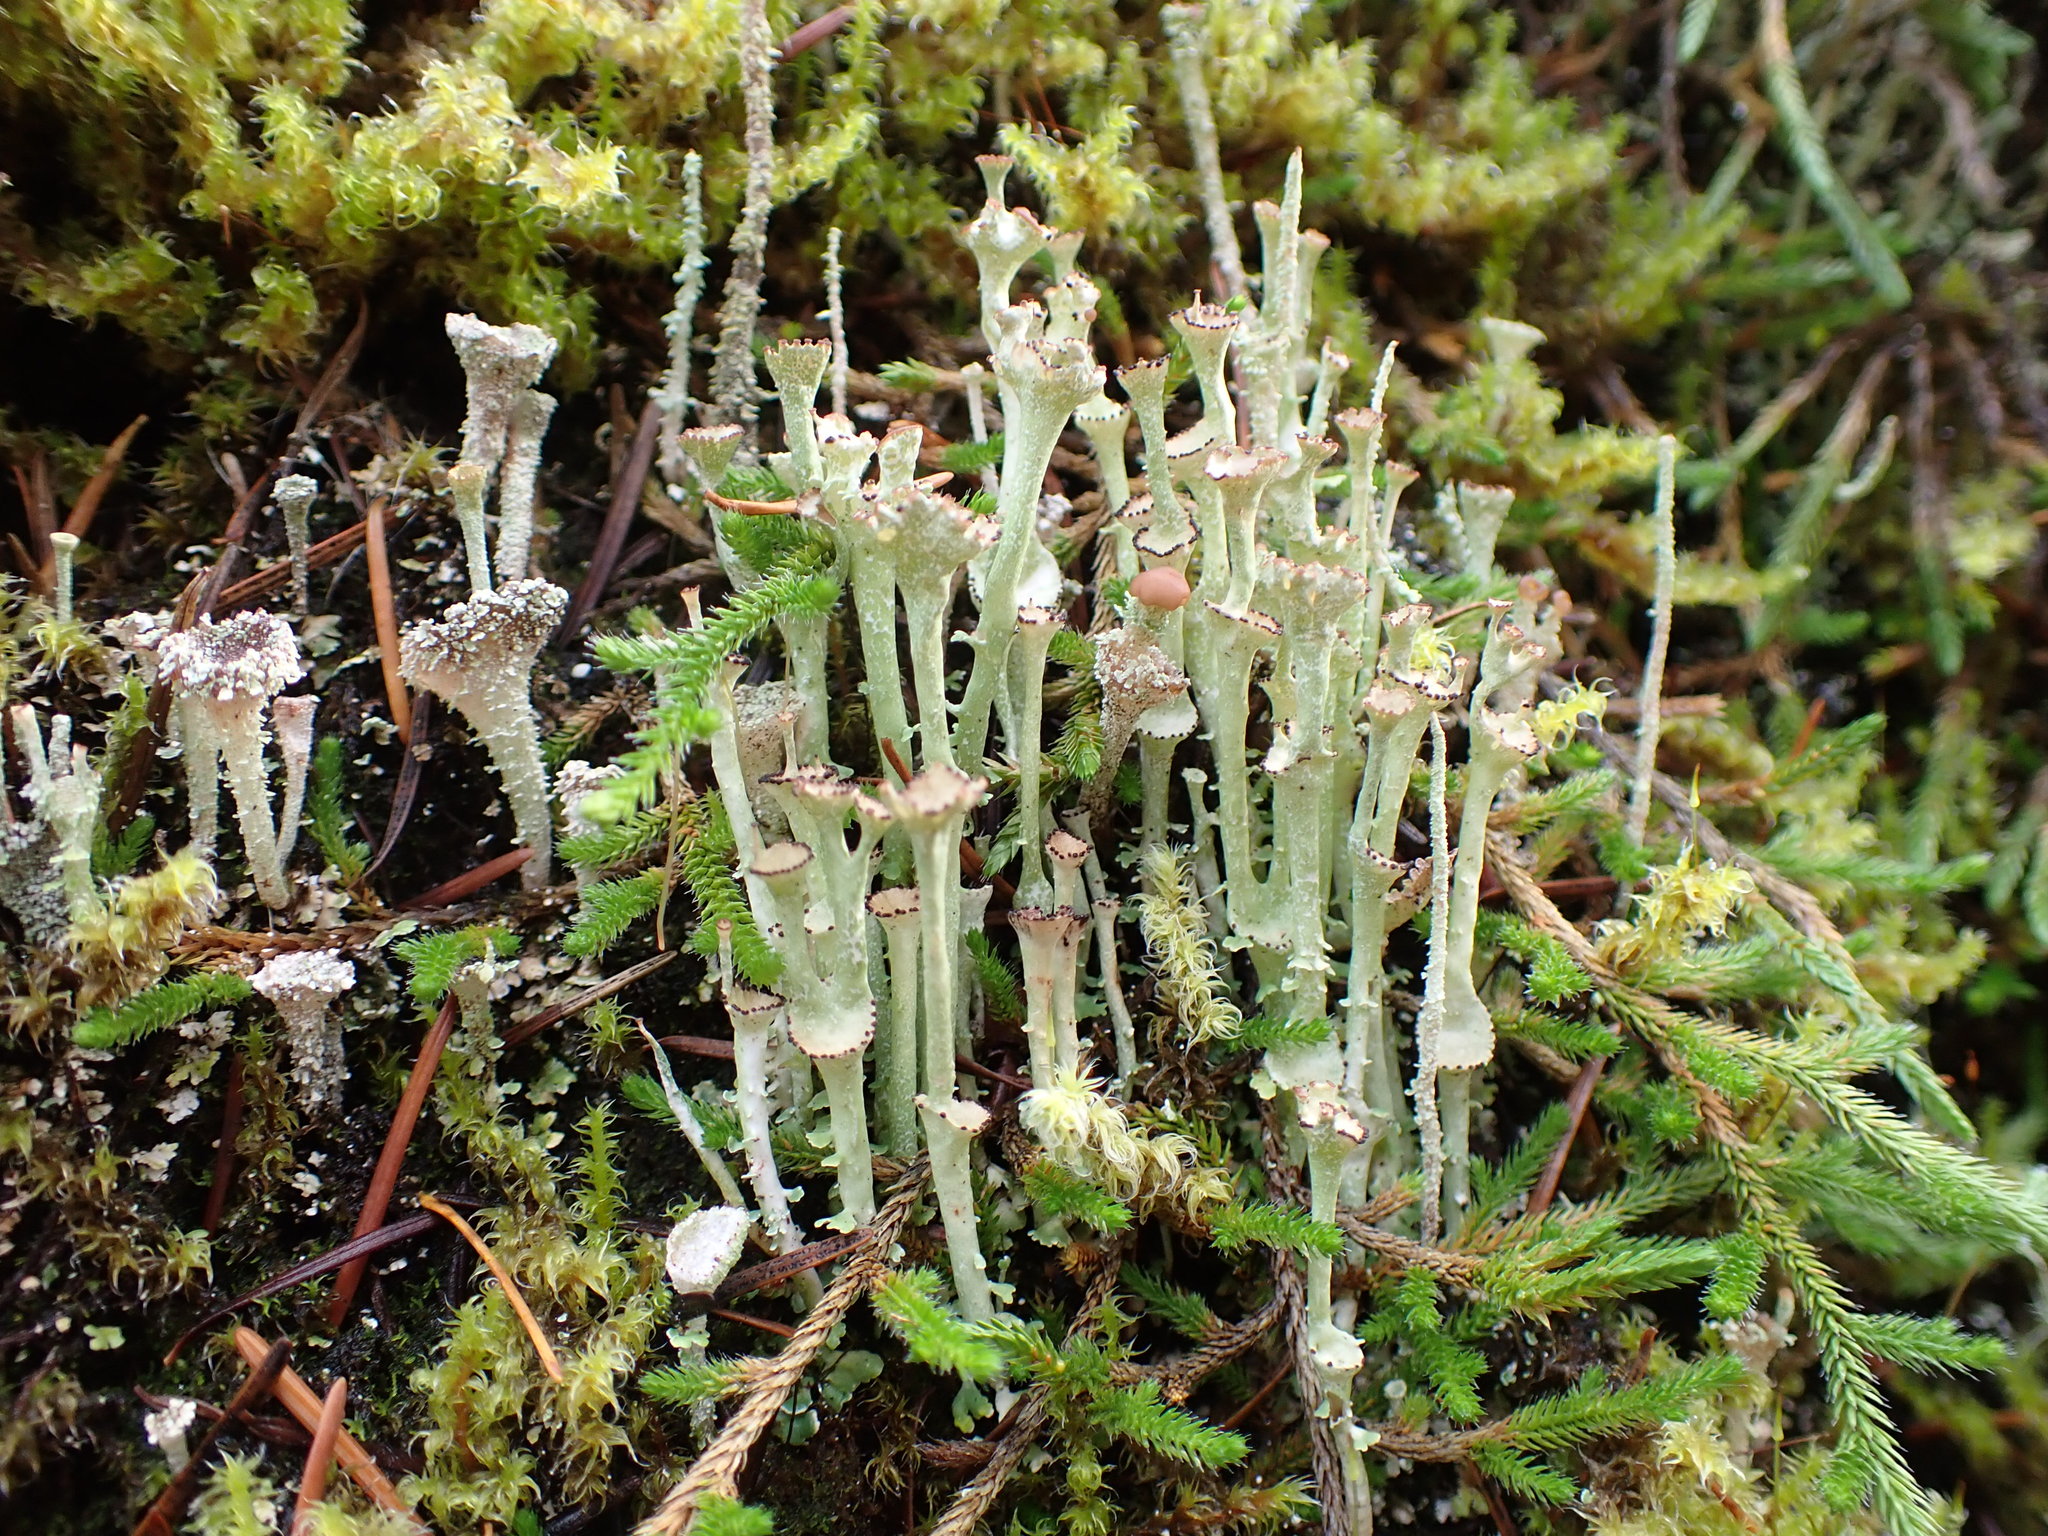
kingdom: Fungi
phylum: Ascomycota
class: Lecanoromycetes
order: Lecanorales
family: Cladoniaceae
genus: Cladonia
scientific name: Cladonia cervicornis
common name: Browned pixie-cup lichen
